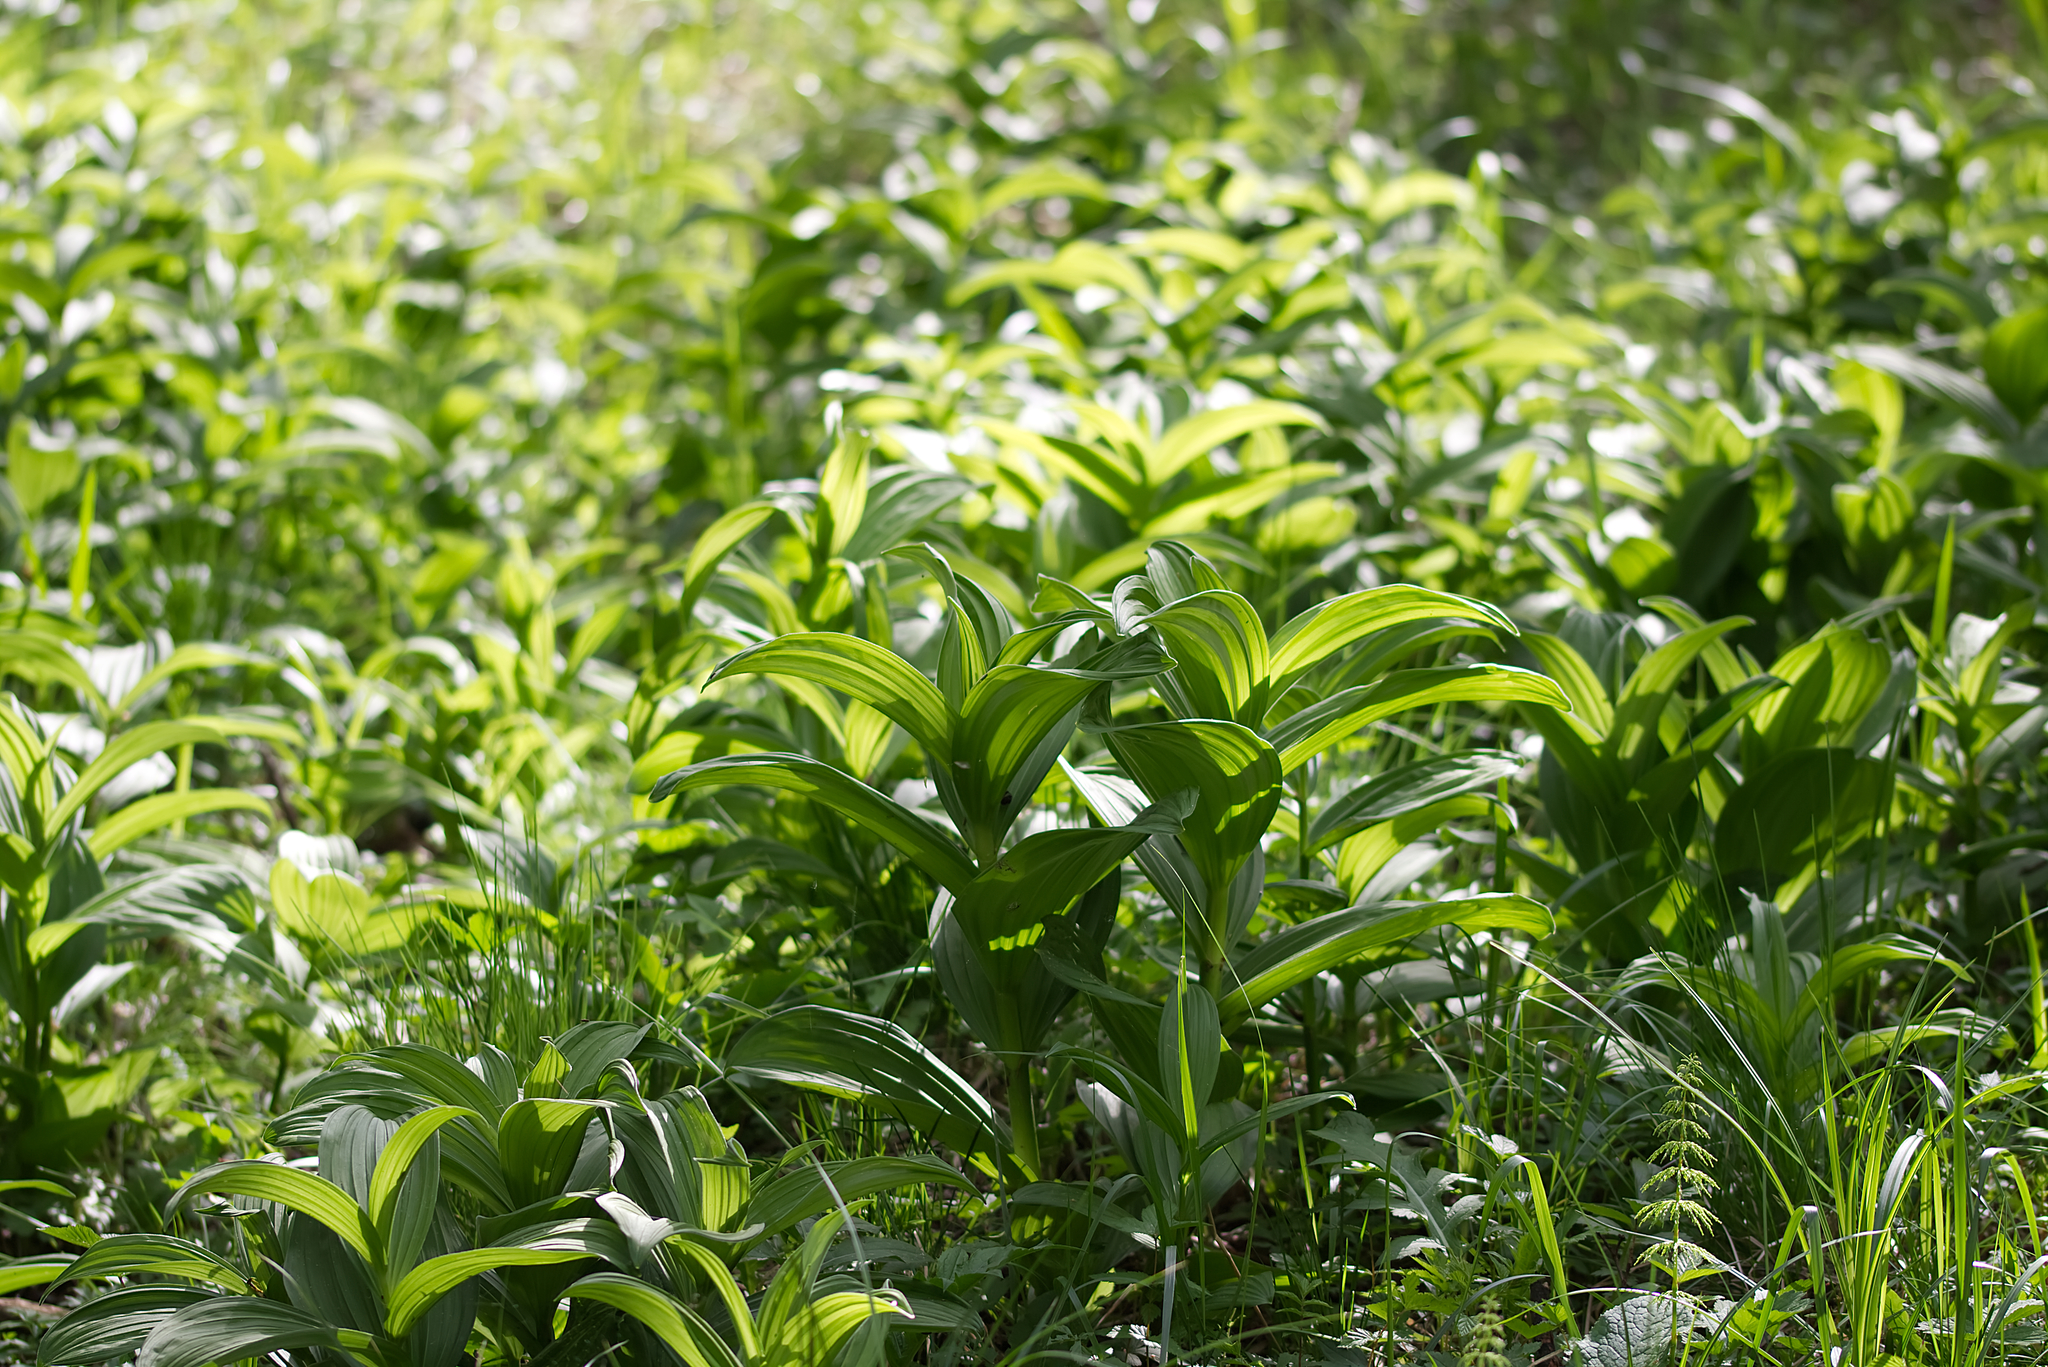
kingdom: Plantae
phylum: Tracheophyta
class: Liliopsida
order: Liliales
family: Melanthiaceae
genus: Veratrum
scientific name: Veratrum album
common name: White veratrum
